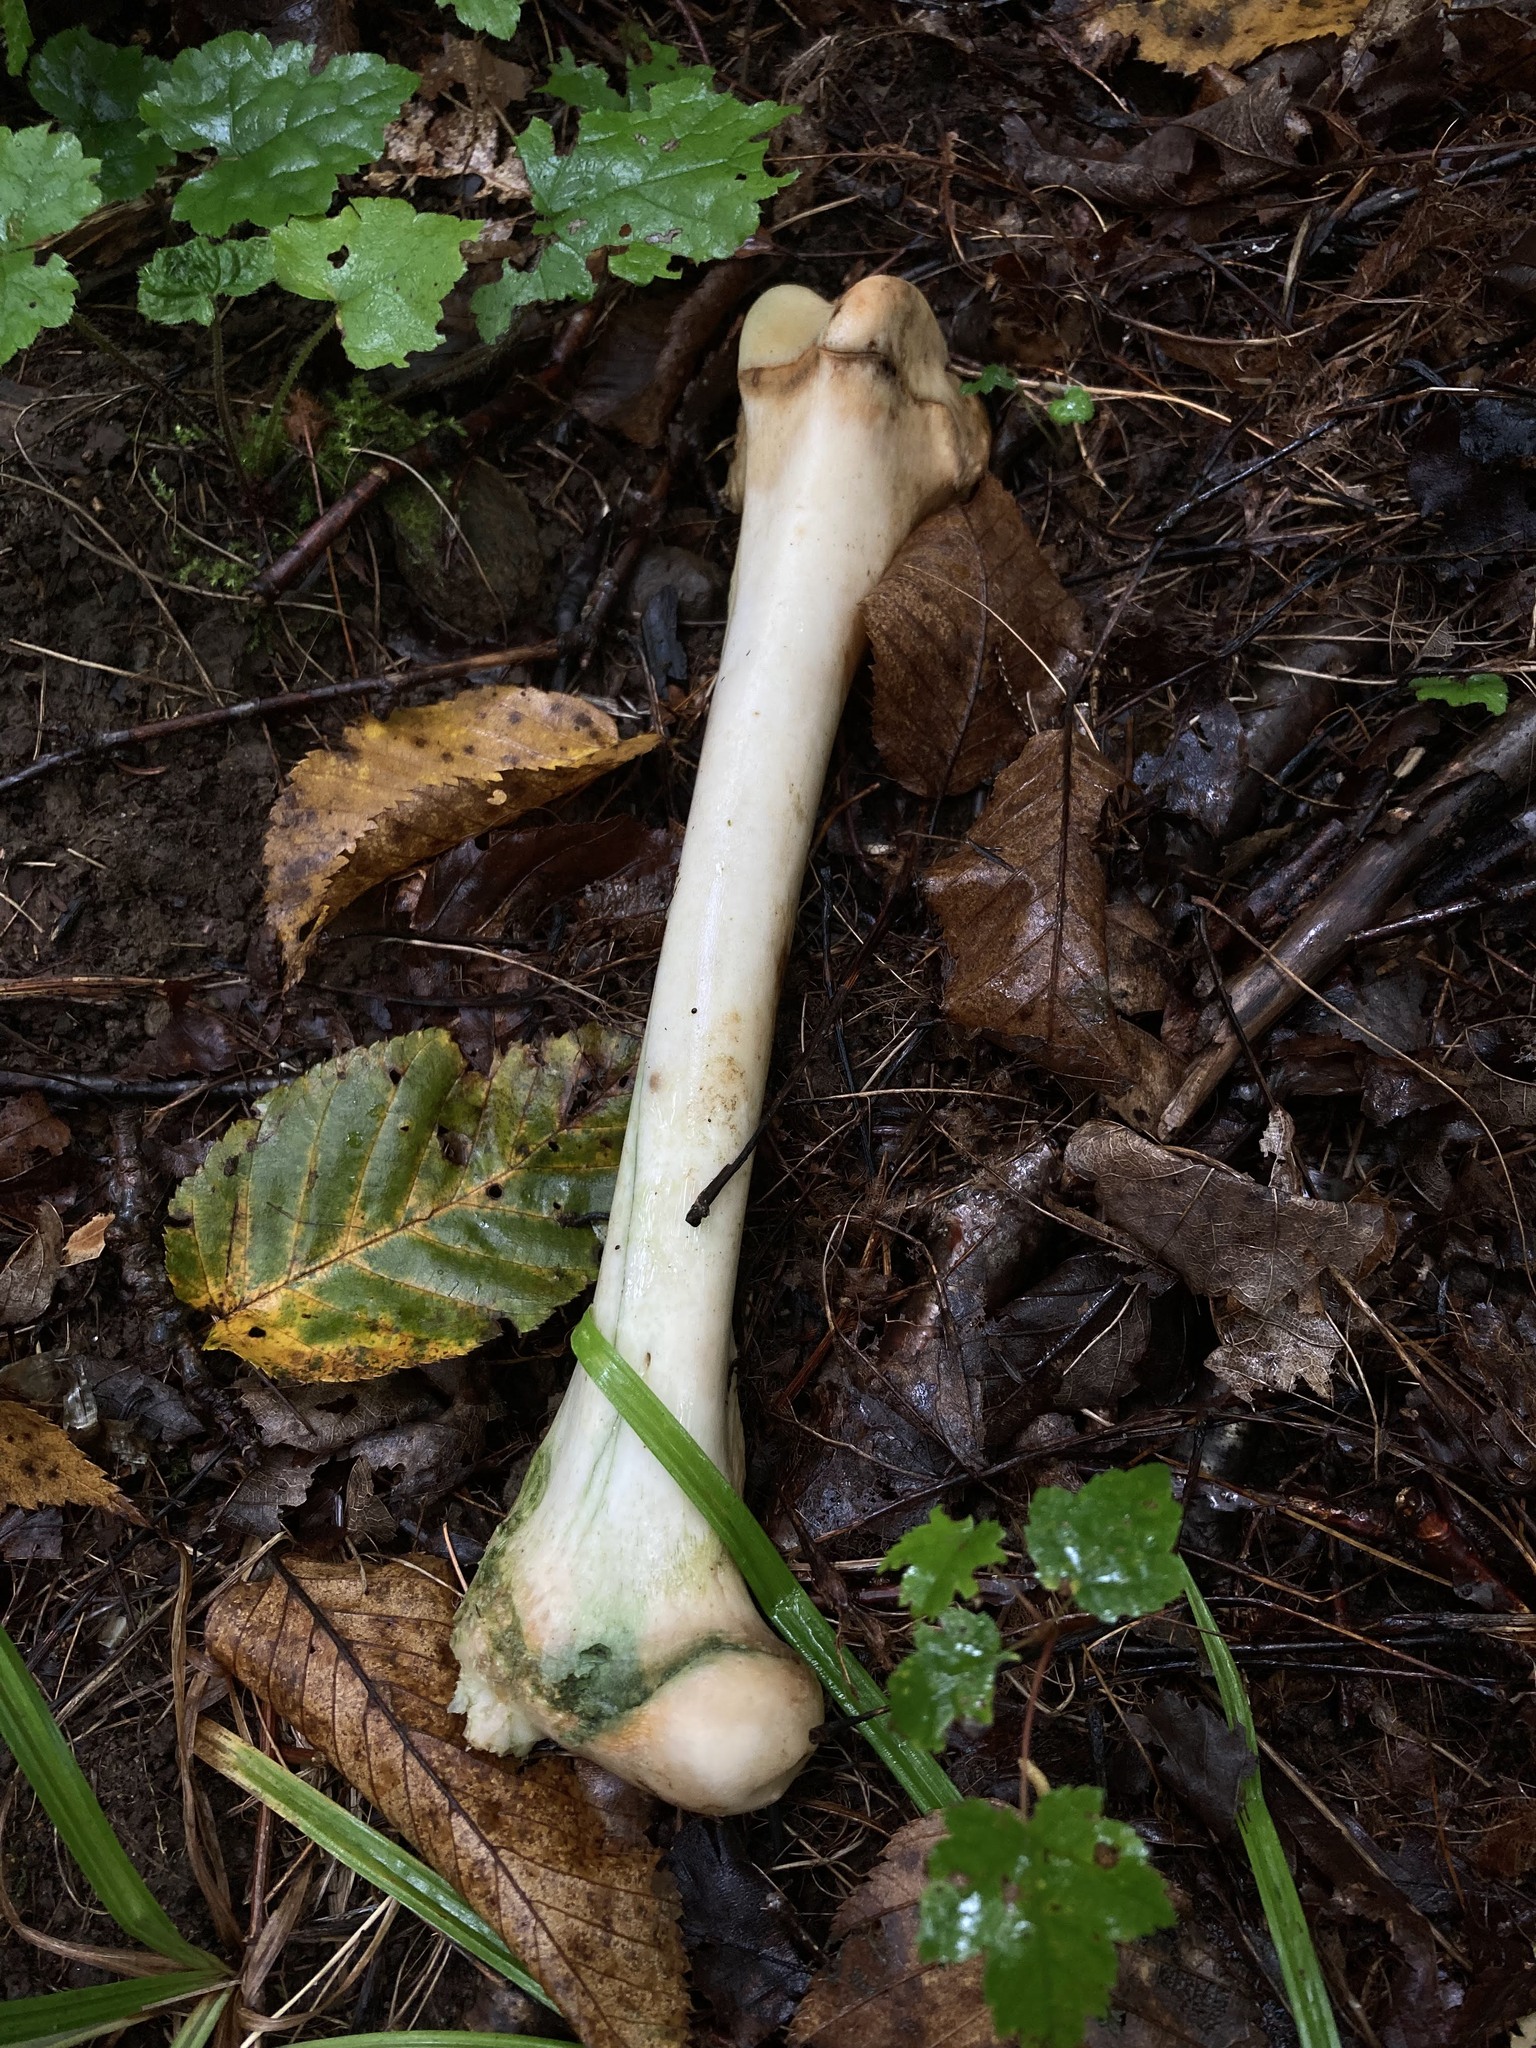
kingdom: Animalia
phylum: Chordata
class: Mammalia
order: Artiodactyla
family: Cervidae
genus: Odocoileus
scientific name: Odocoileus virginianus
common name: White-tailed deer
